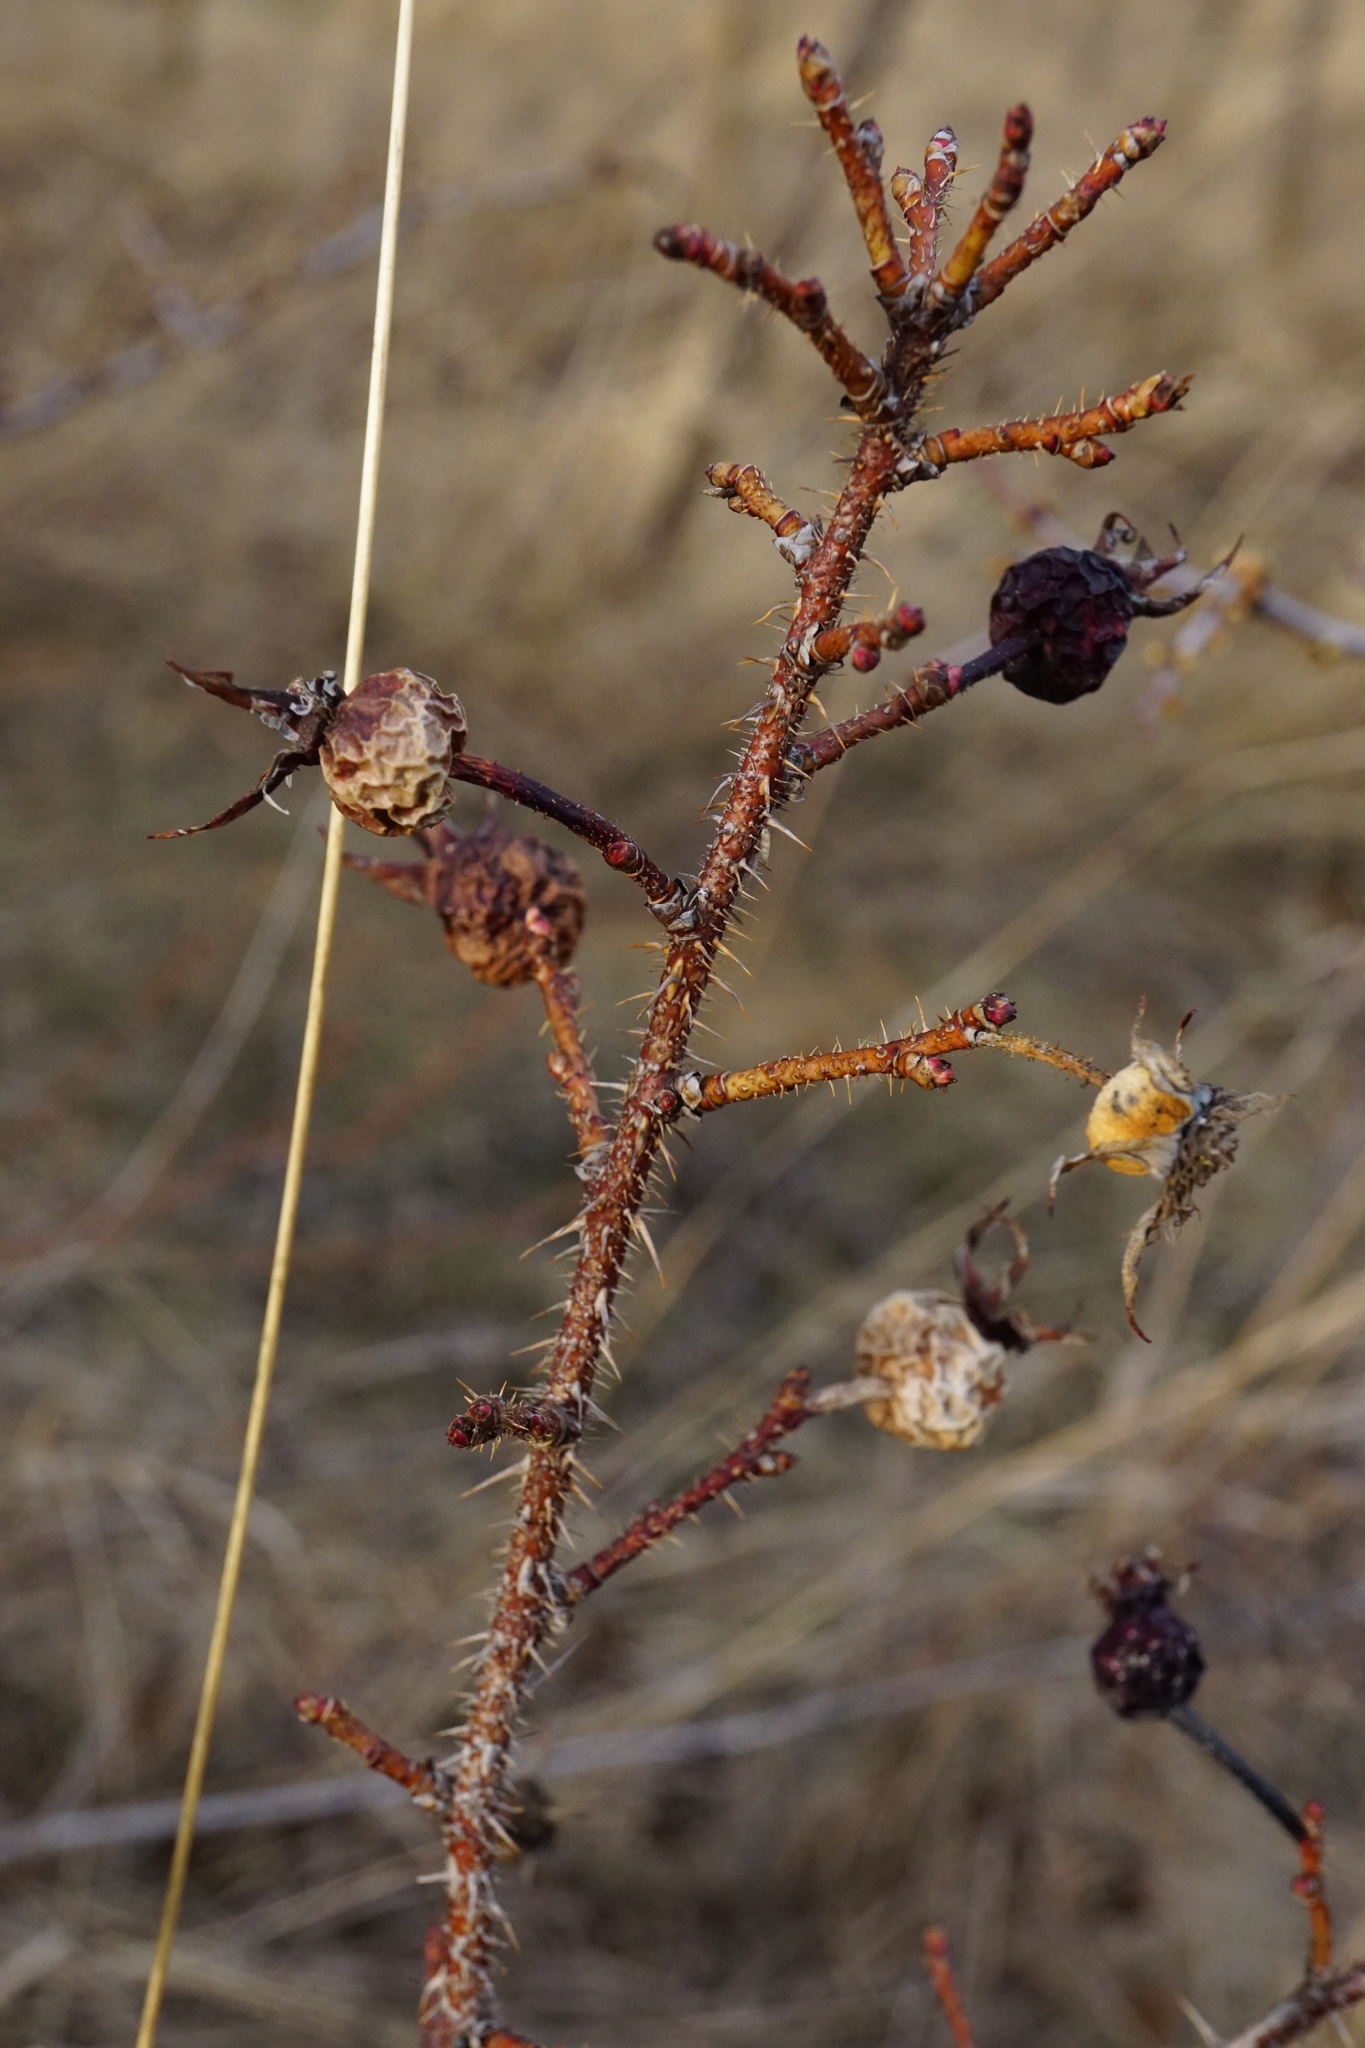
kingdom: Plantae
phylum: Tracheophyta
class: Magnoliopsida
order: Rosales
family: Rosaceae
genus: Rosa
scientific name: Rosa spinosissima
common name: Burnet rose
